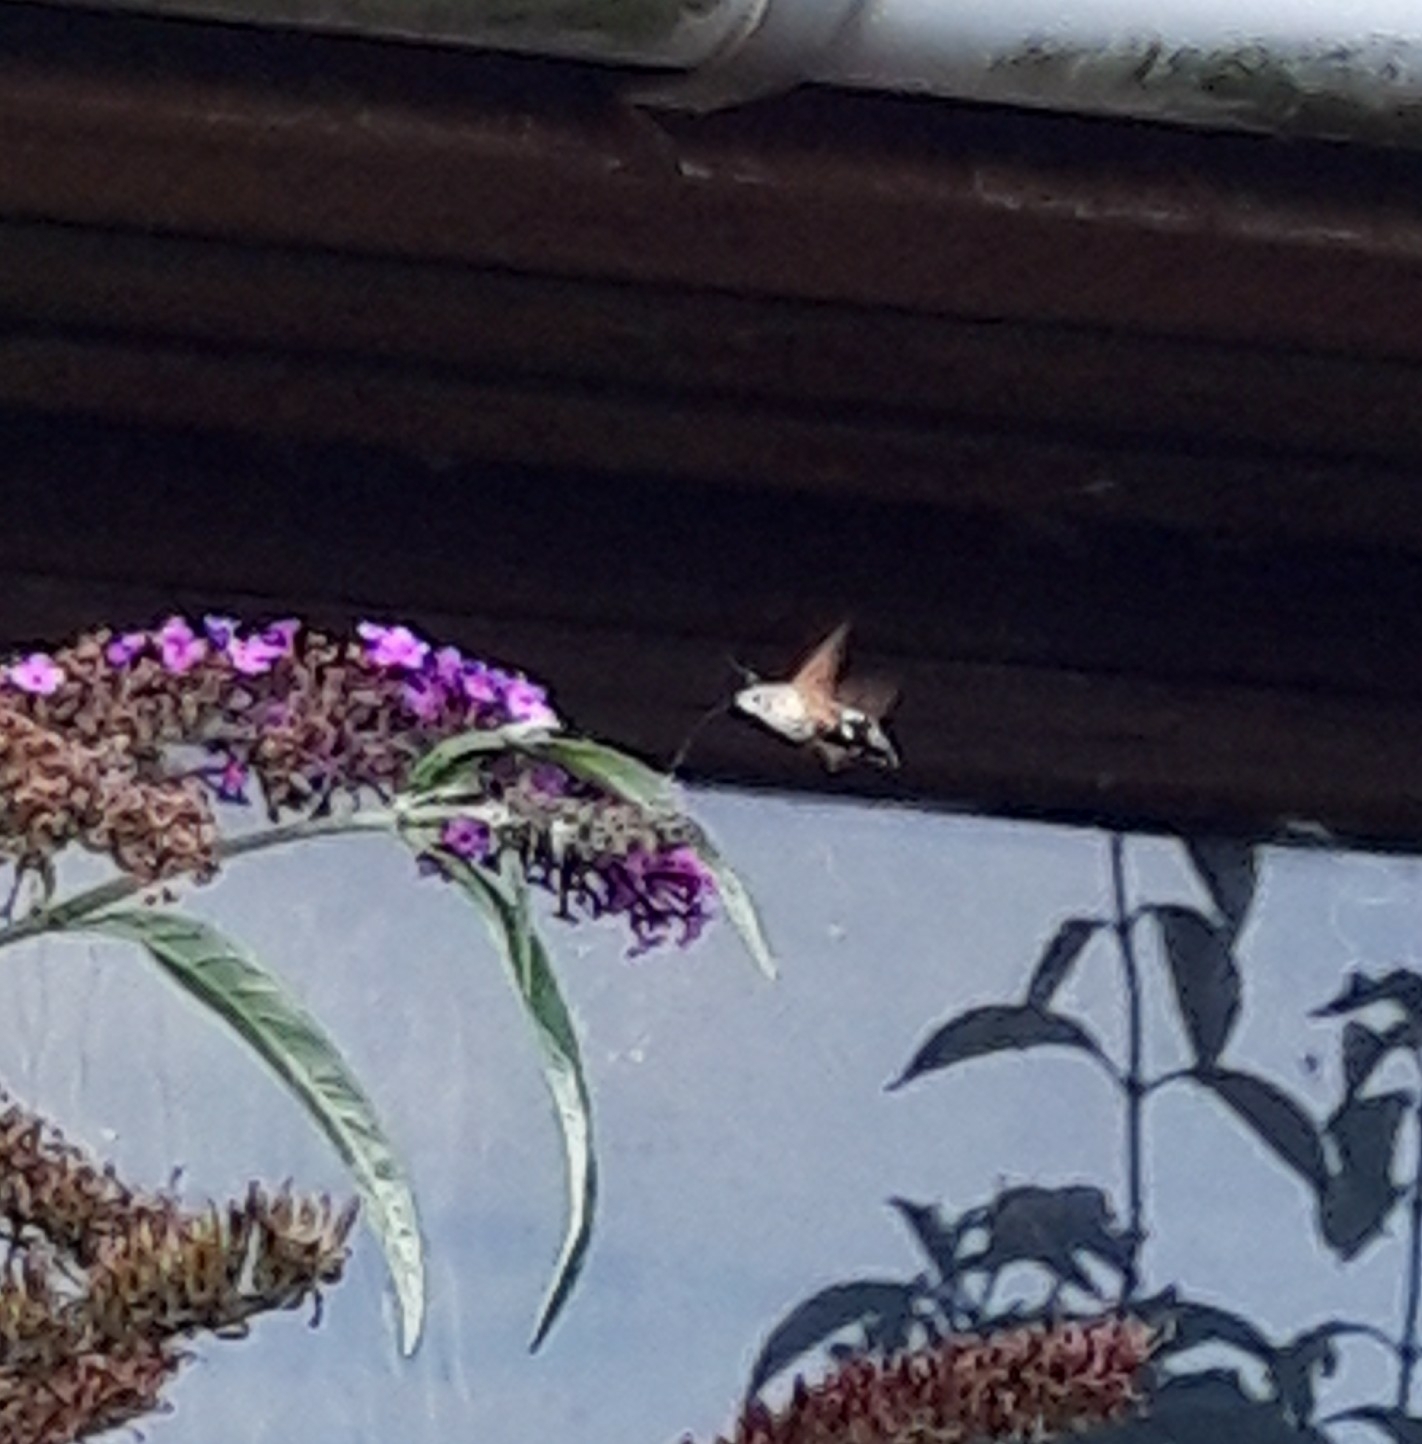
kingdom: Animalia
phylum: Arthropoda
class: Insecta
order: Lepidoptera
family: Sphingidae
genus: Macroglossum
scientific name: Macroglossum stellatarum
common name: Humming-bird hawk-moth
